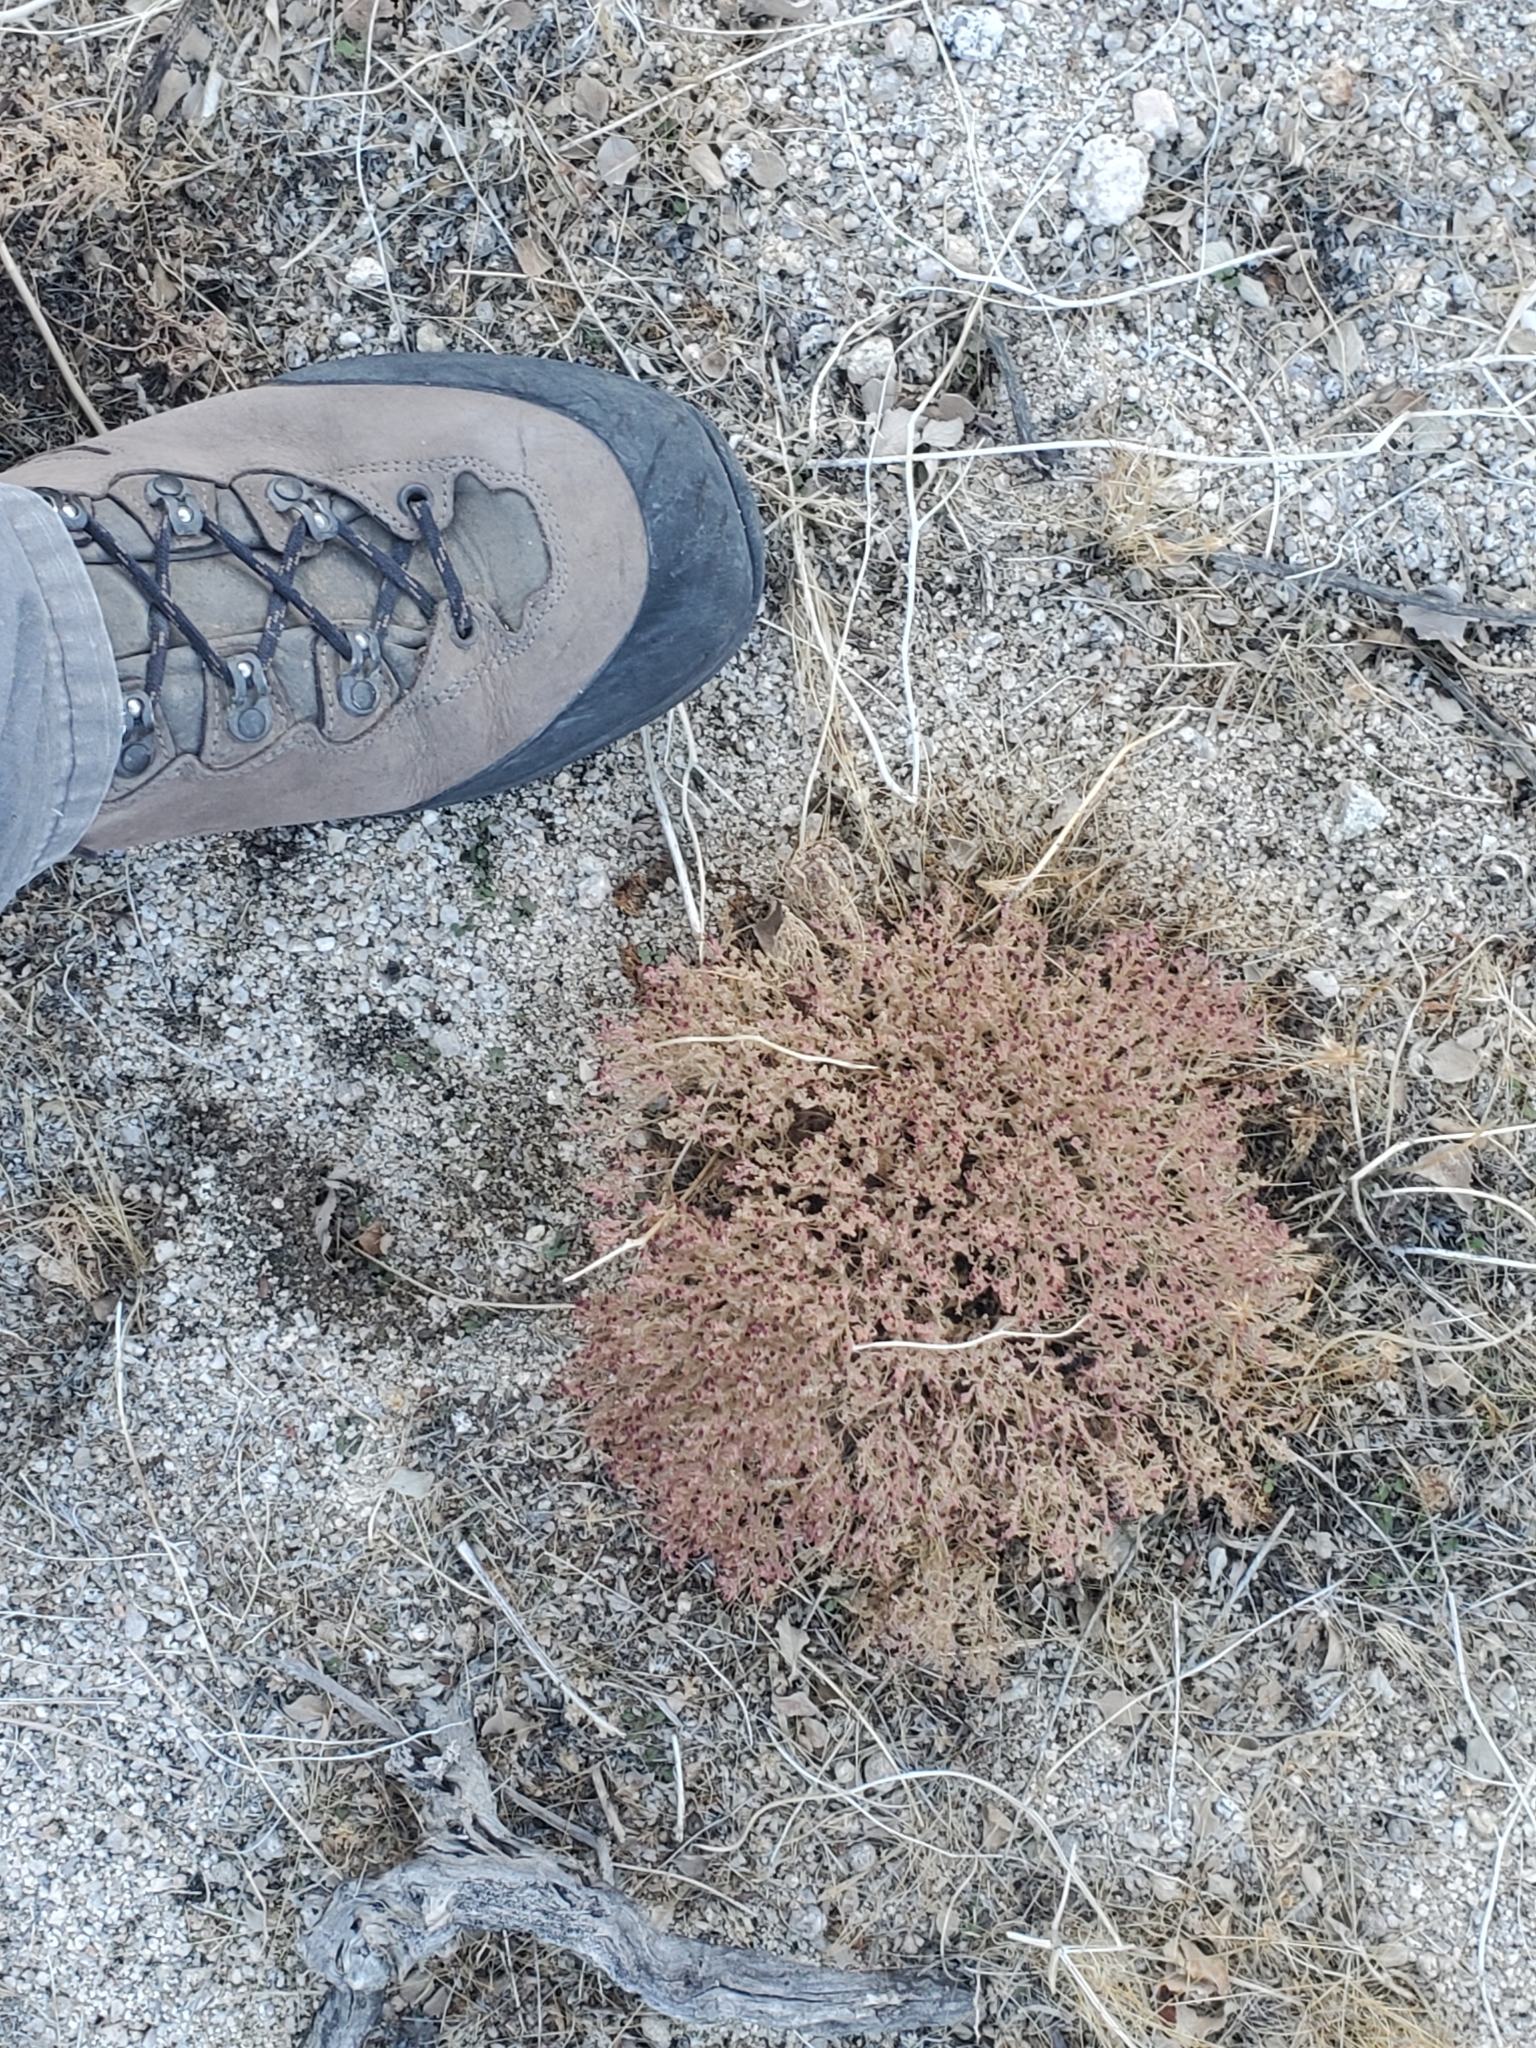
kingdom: Plantae
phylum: Tracheophyta
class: Magnoliopsida
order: Malpighiales
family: Euphorbiaceae
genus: Euphorbia
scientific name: Euphorbia polycarpa
